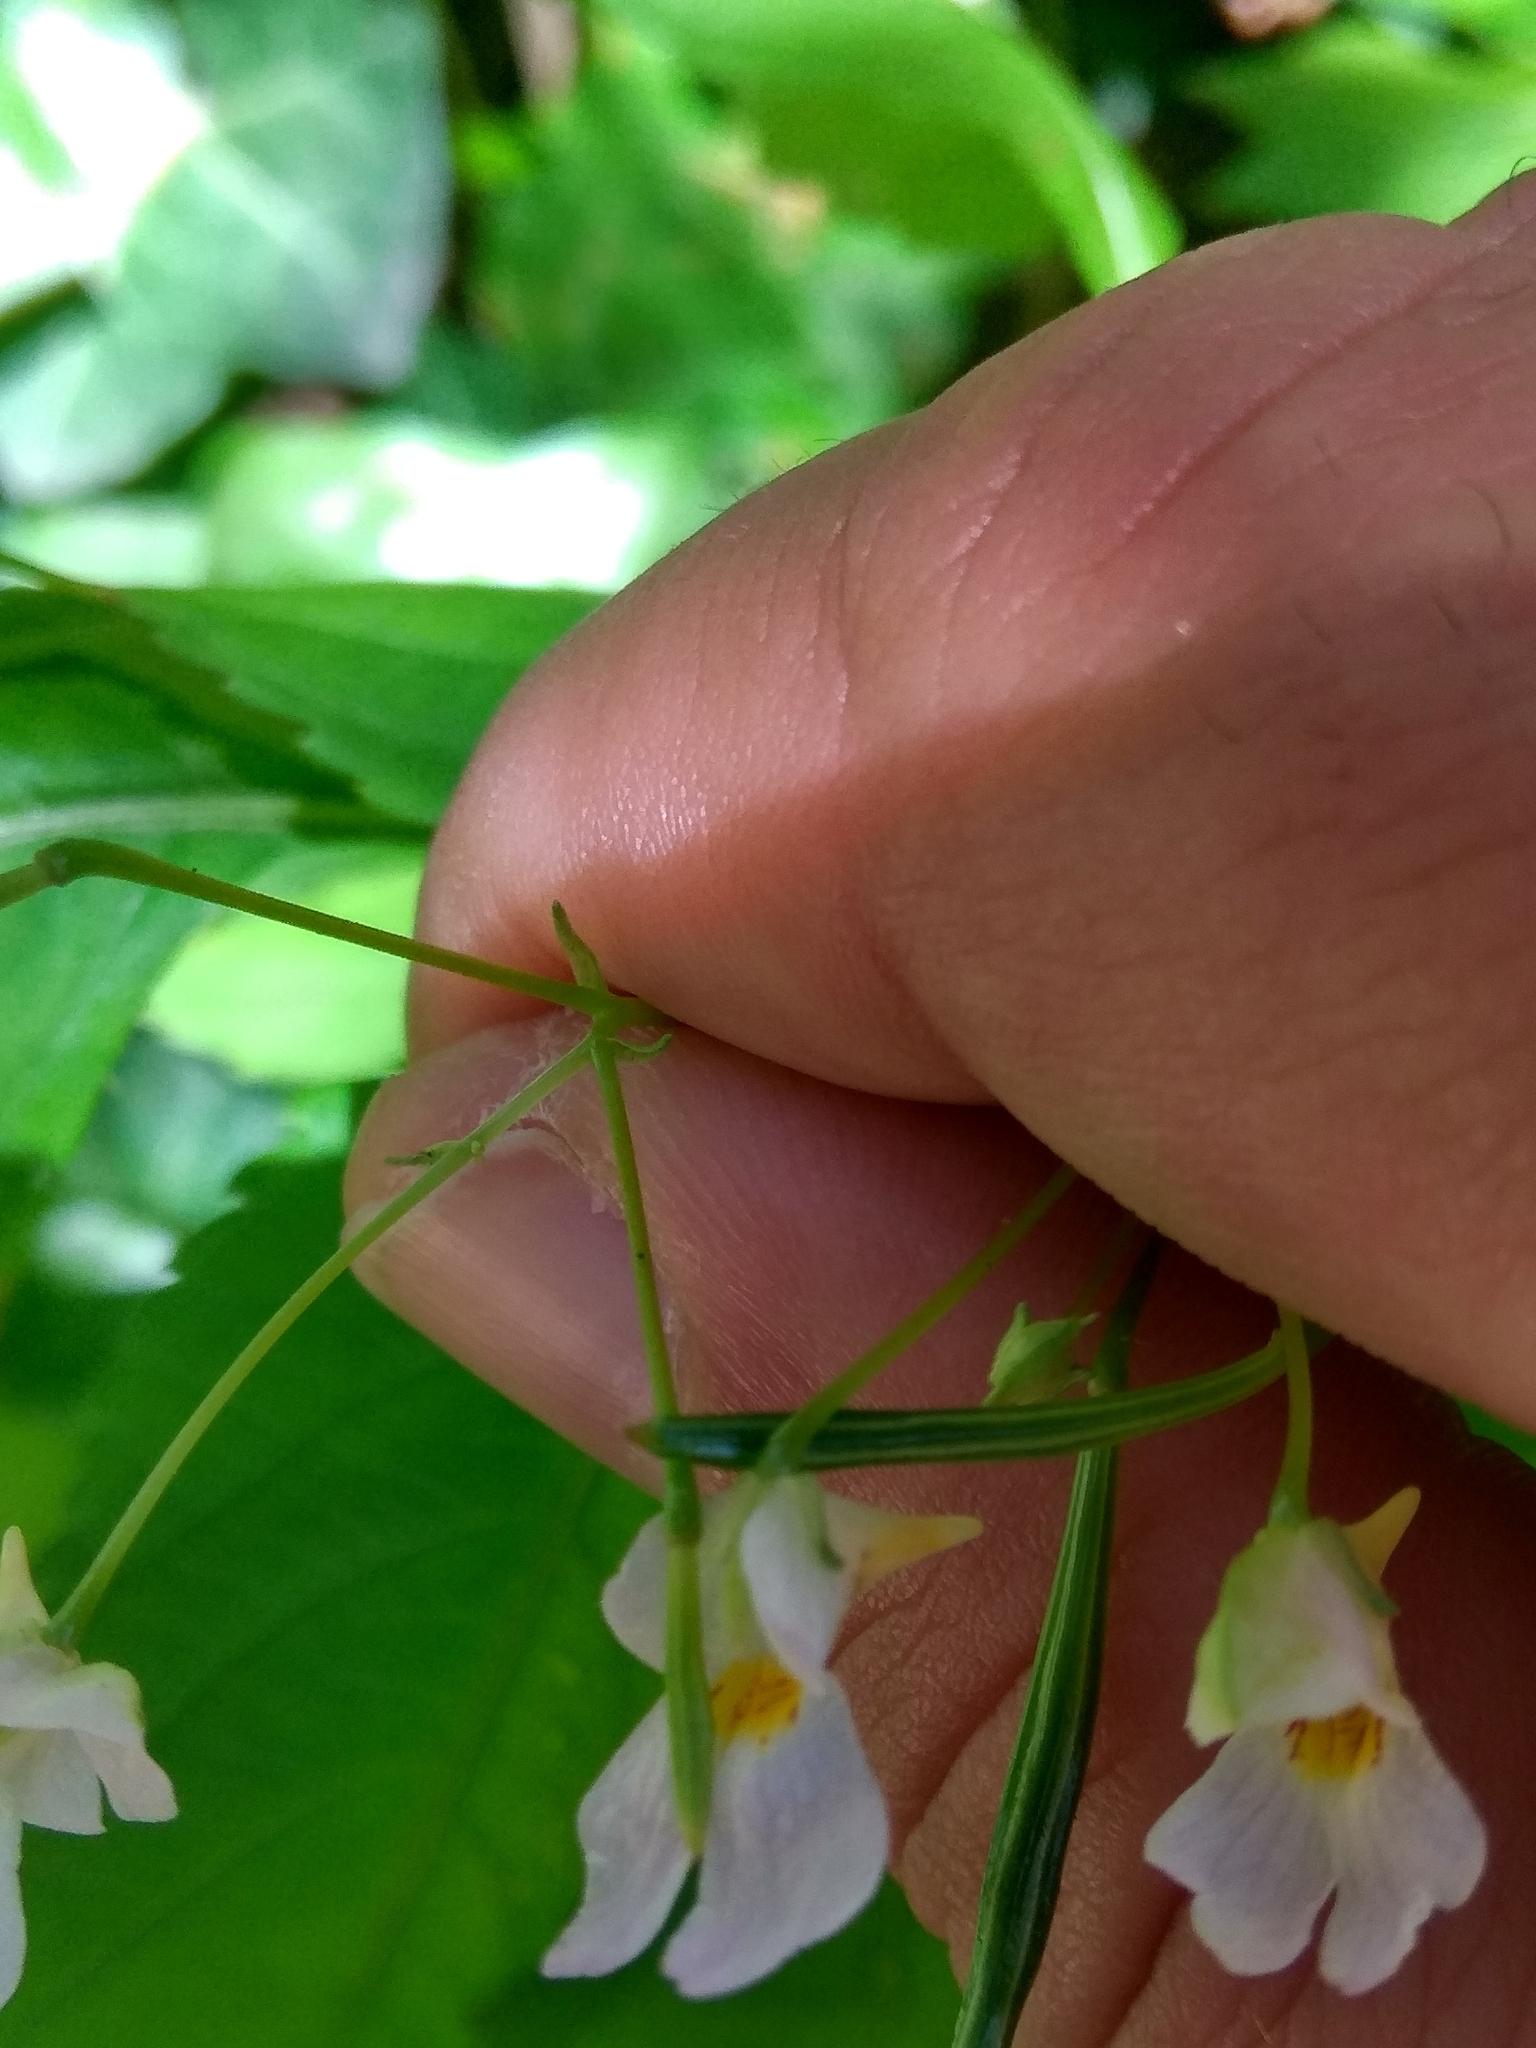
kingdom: Plantae
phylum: Tracheophyta
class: Magnoliopsida
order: Ericales
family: Balsaminaceae
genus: Impatiens
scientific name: Impatiens parviflora
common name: Small balsam
